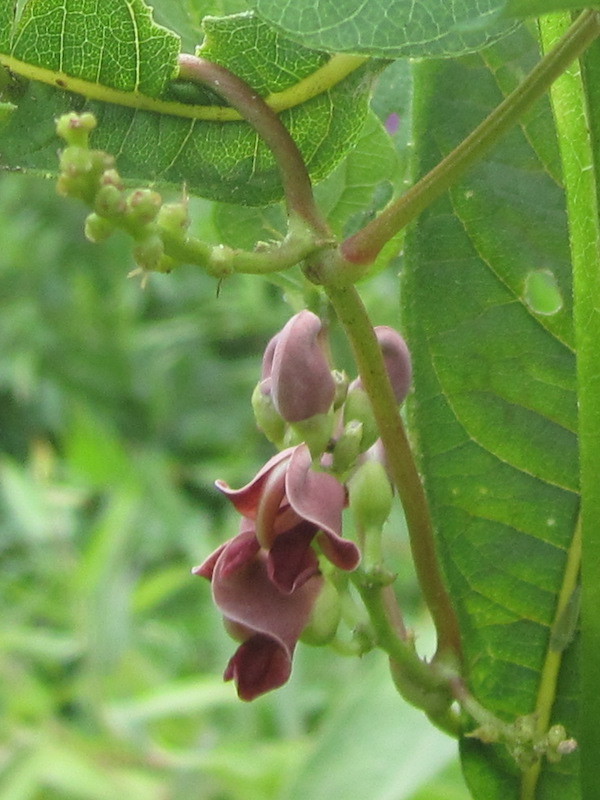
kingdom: Plantae
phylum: Tracheophyta
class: Magnoliopsida
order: Fabales
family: Fabaceae
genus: Apios
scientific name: Apios americana
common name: American potato-bean
